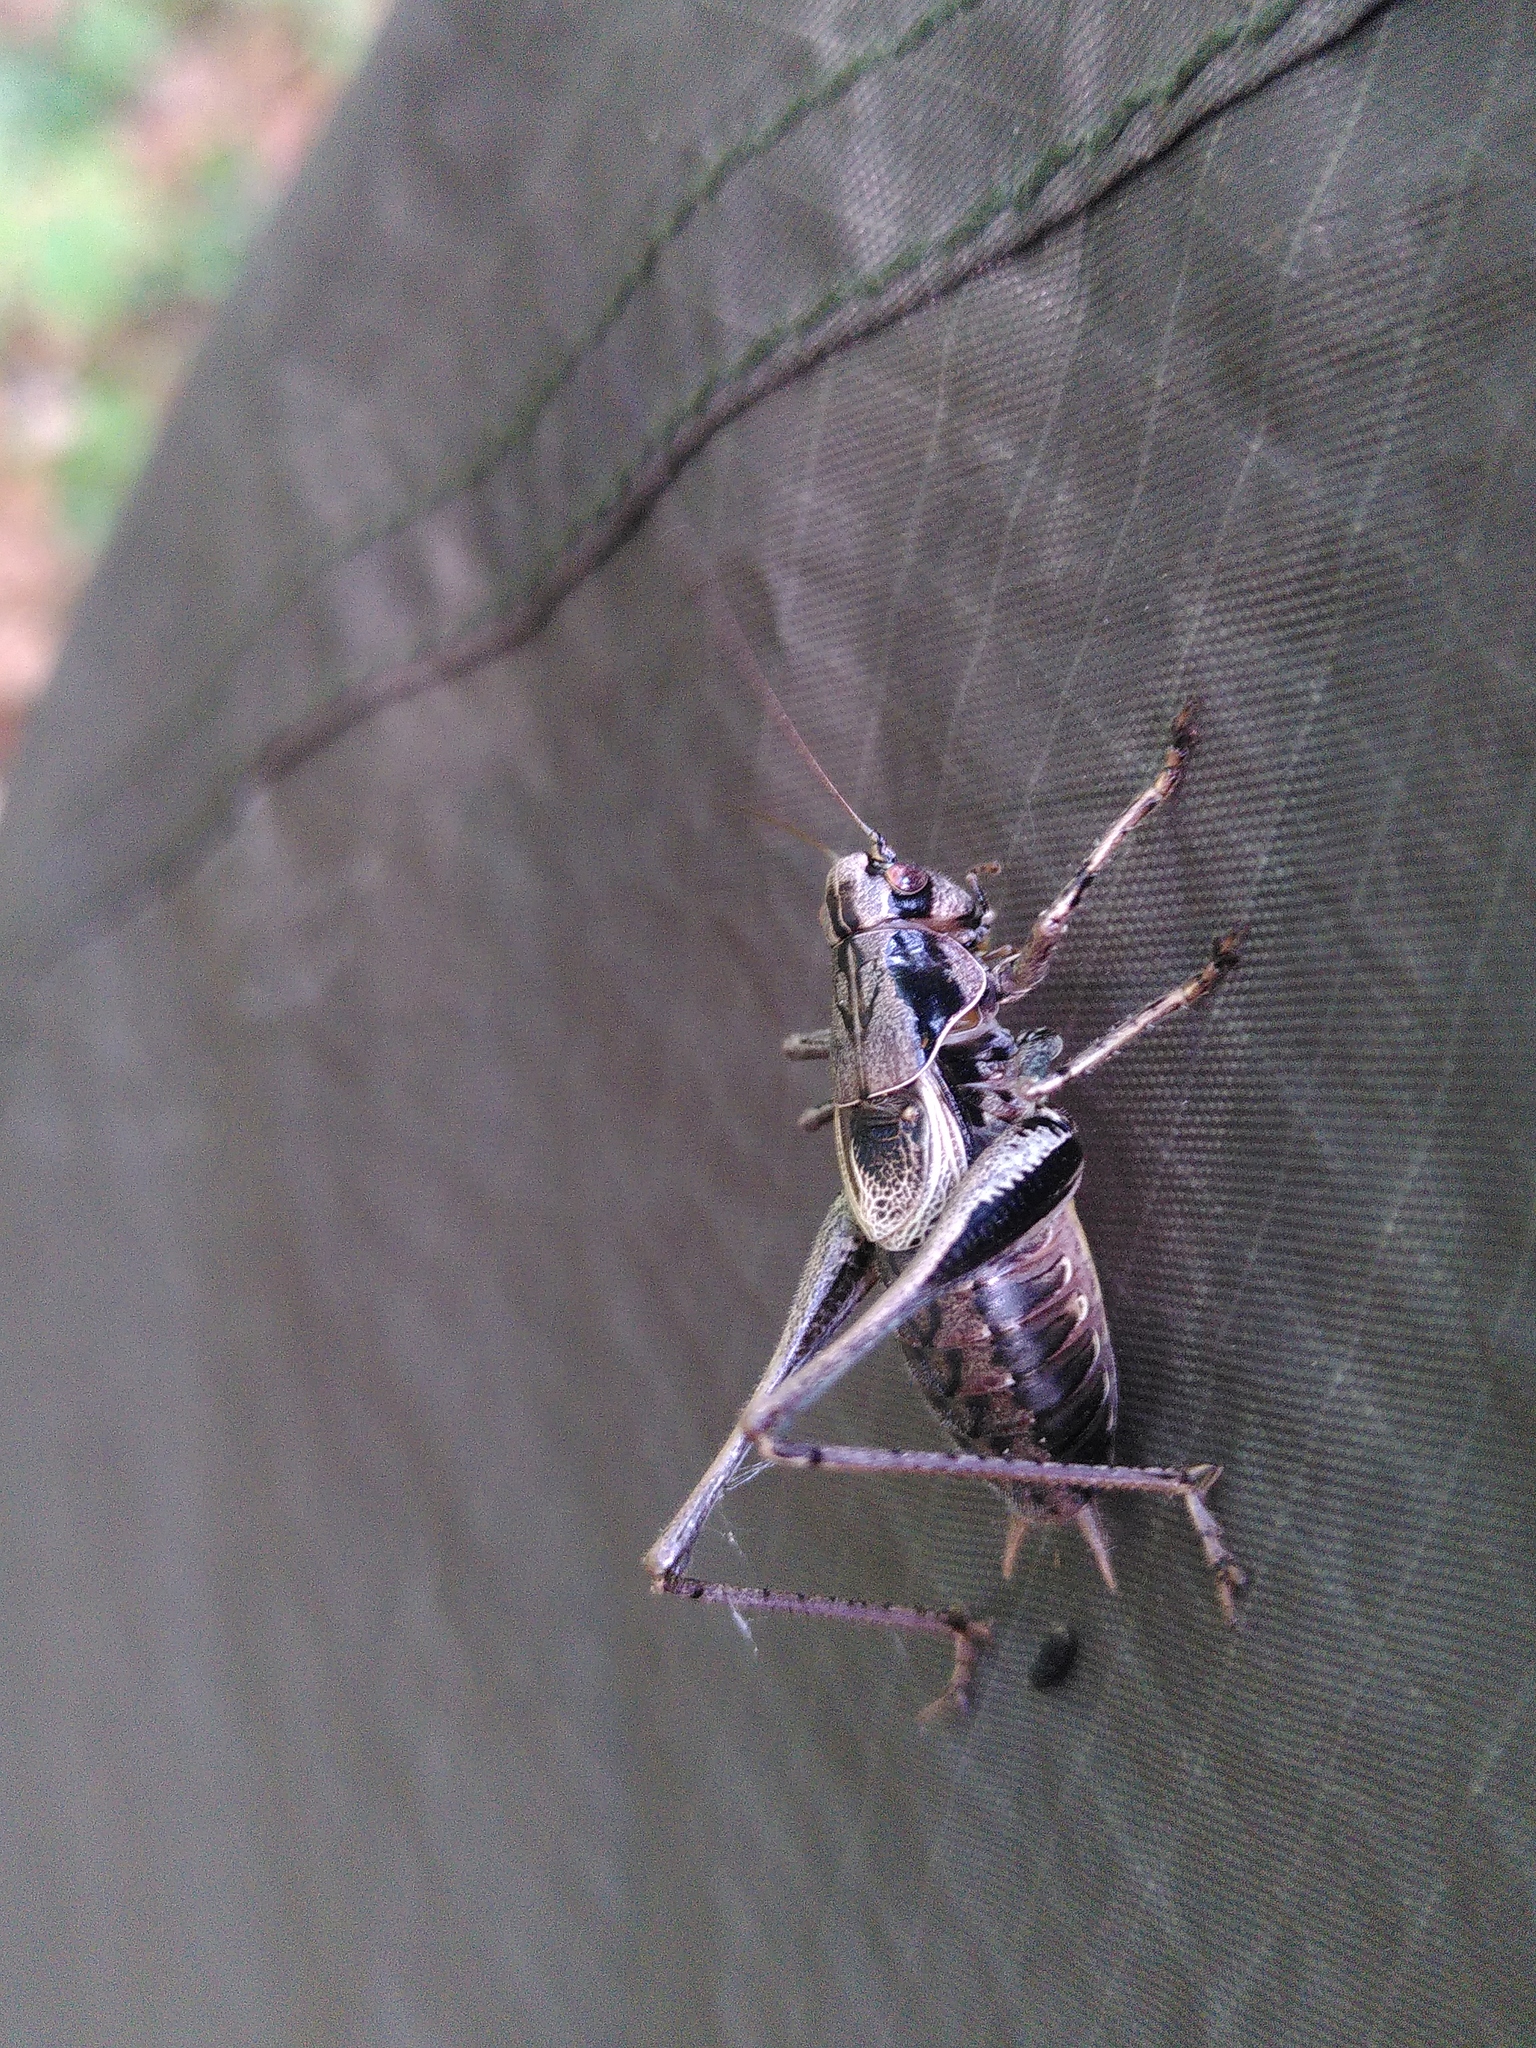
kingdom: Animalia
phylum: Arthropoda
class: Insecta
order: Orthoptera
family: Tettigoniidae
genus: Pholidoptera
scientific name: Pholidoptera griseoaptera
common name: Dark bush-cricket
